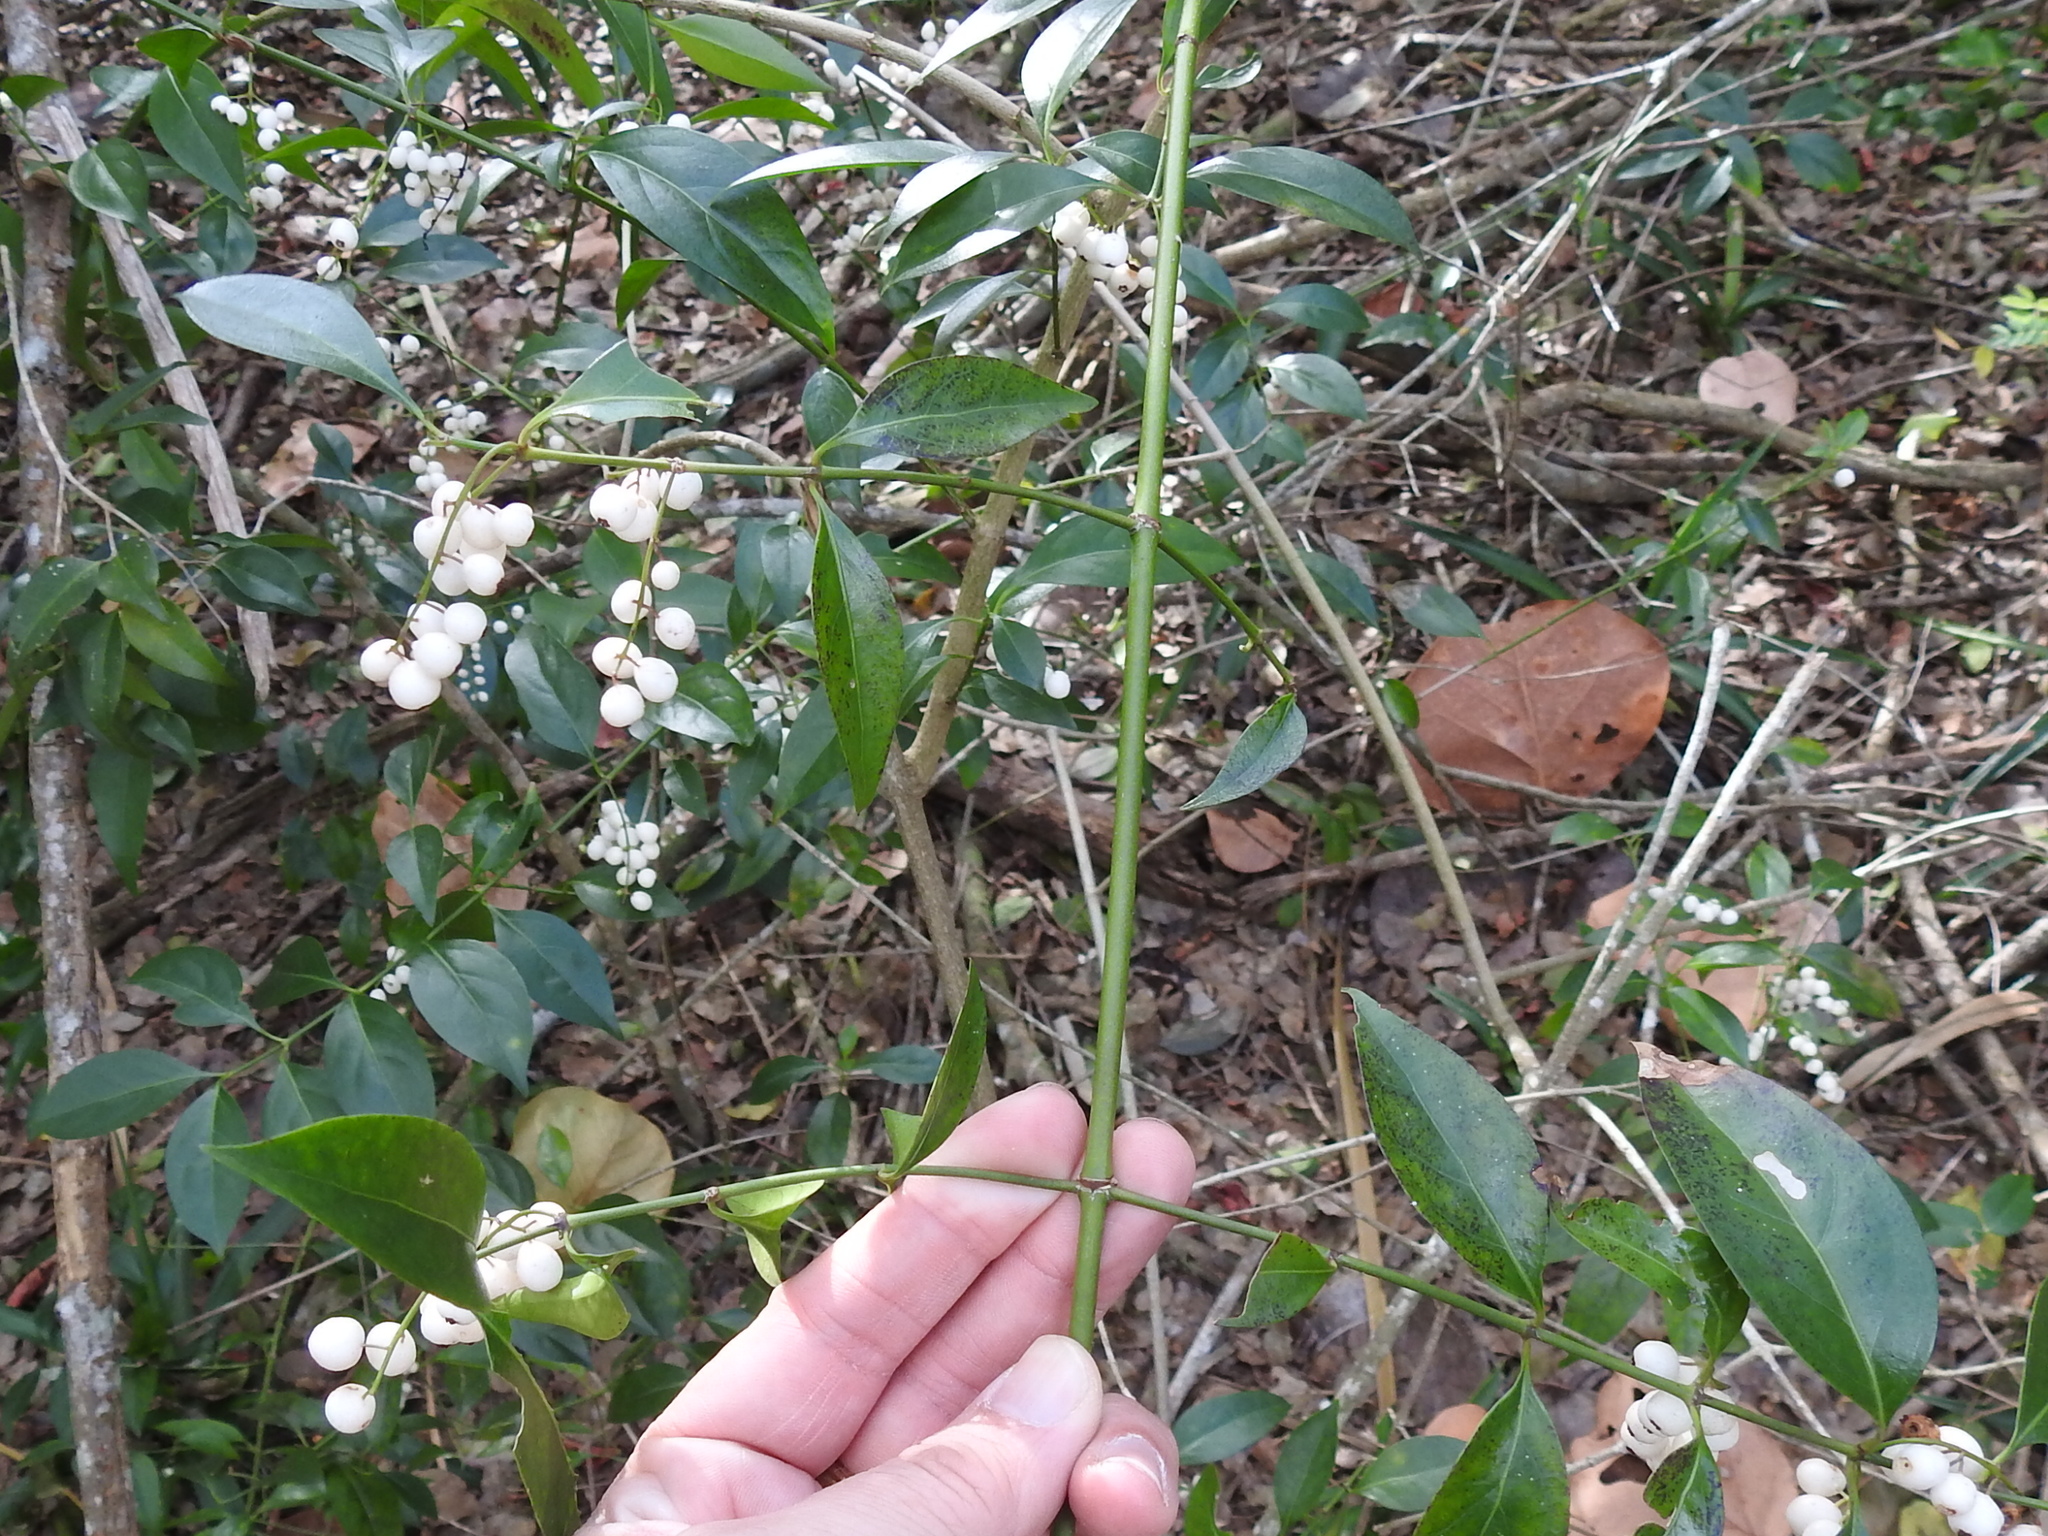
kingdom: Plantae
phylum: Tracheophyta
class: Magnoliopsida
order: Gentianales
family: Rubiaceae
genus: Chiococca
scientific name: Chiococca alba
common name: Snowberry
